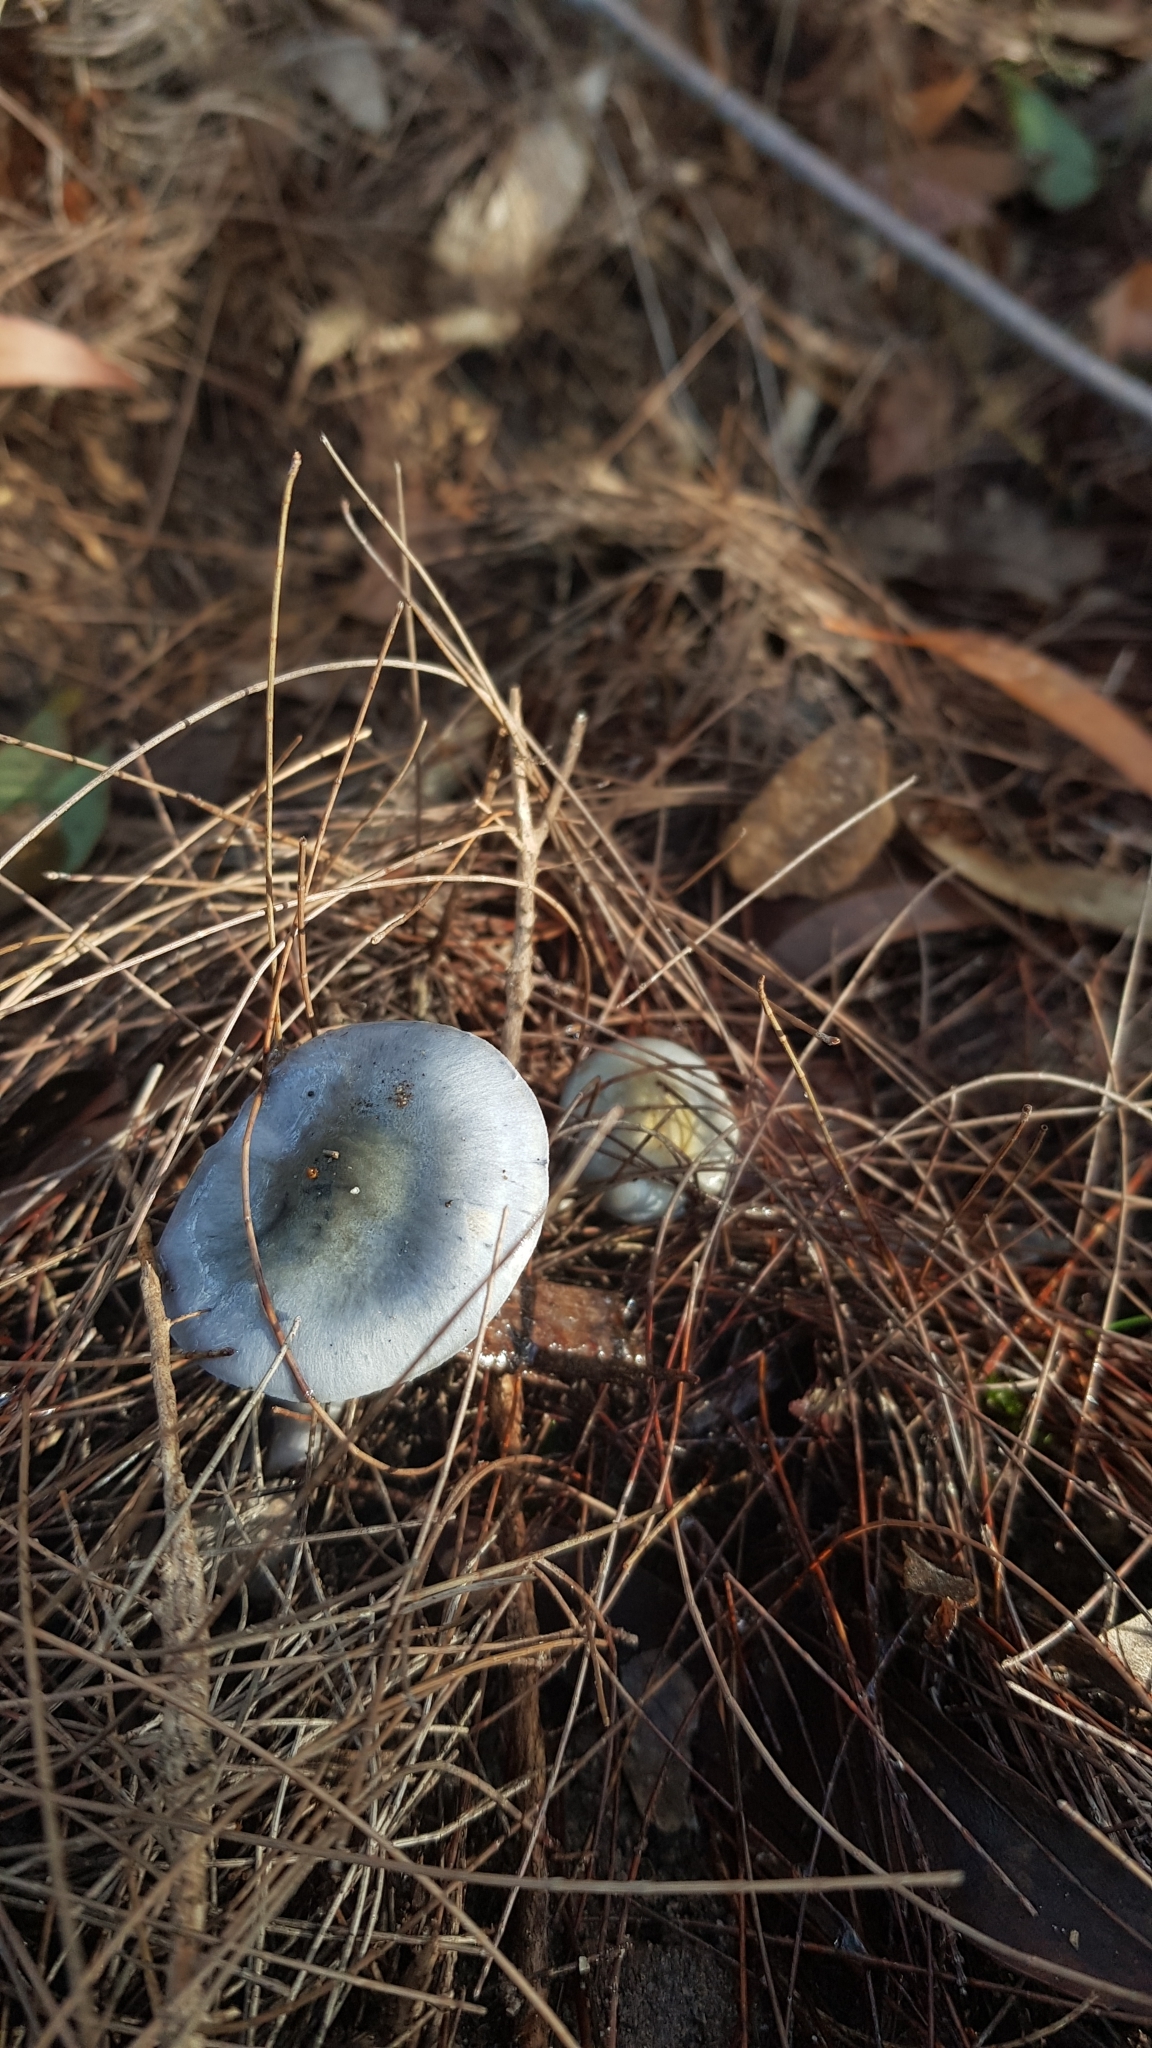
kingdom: Fungi
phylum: Basidiomycota
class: Agaricomycetes
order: Agaricales
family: Cortinariaceae
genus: Cortinarius
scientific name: Cortinarius rotundisporus
